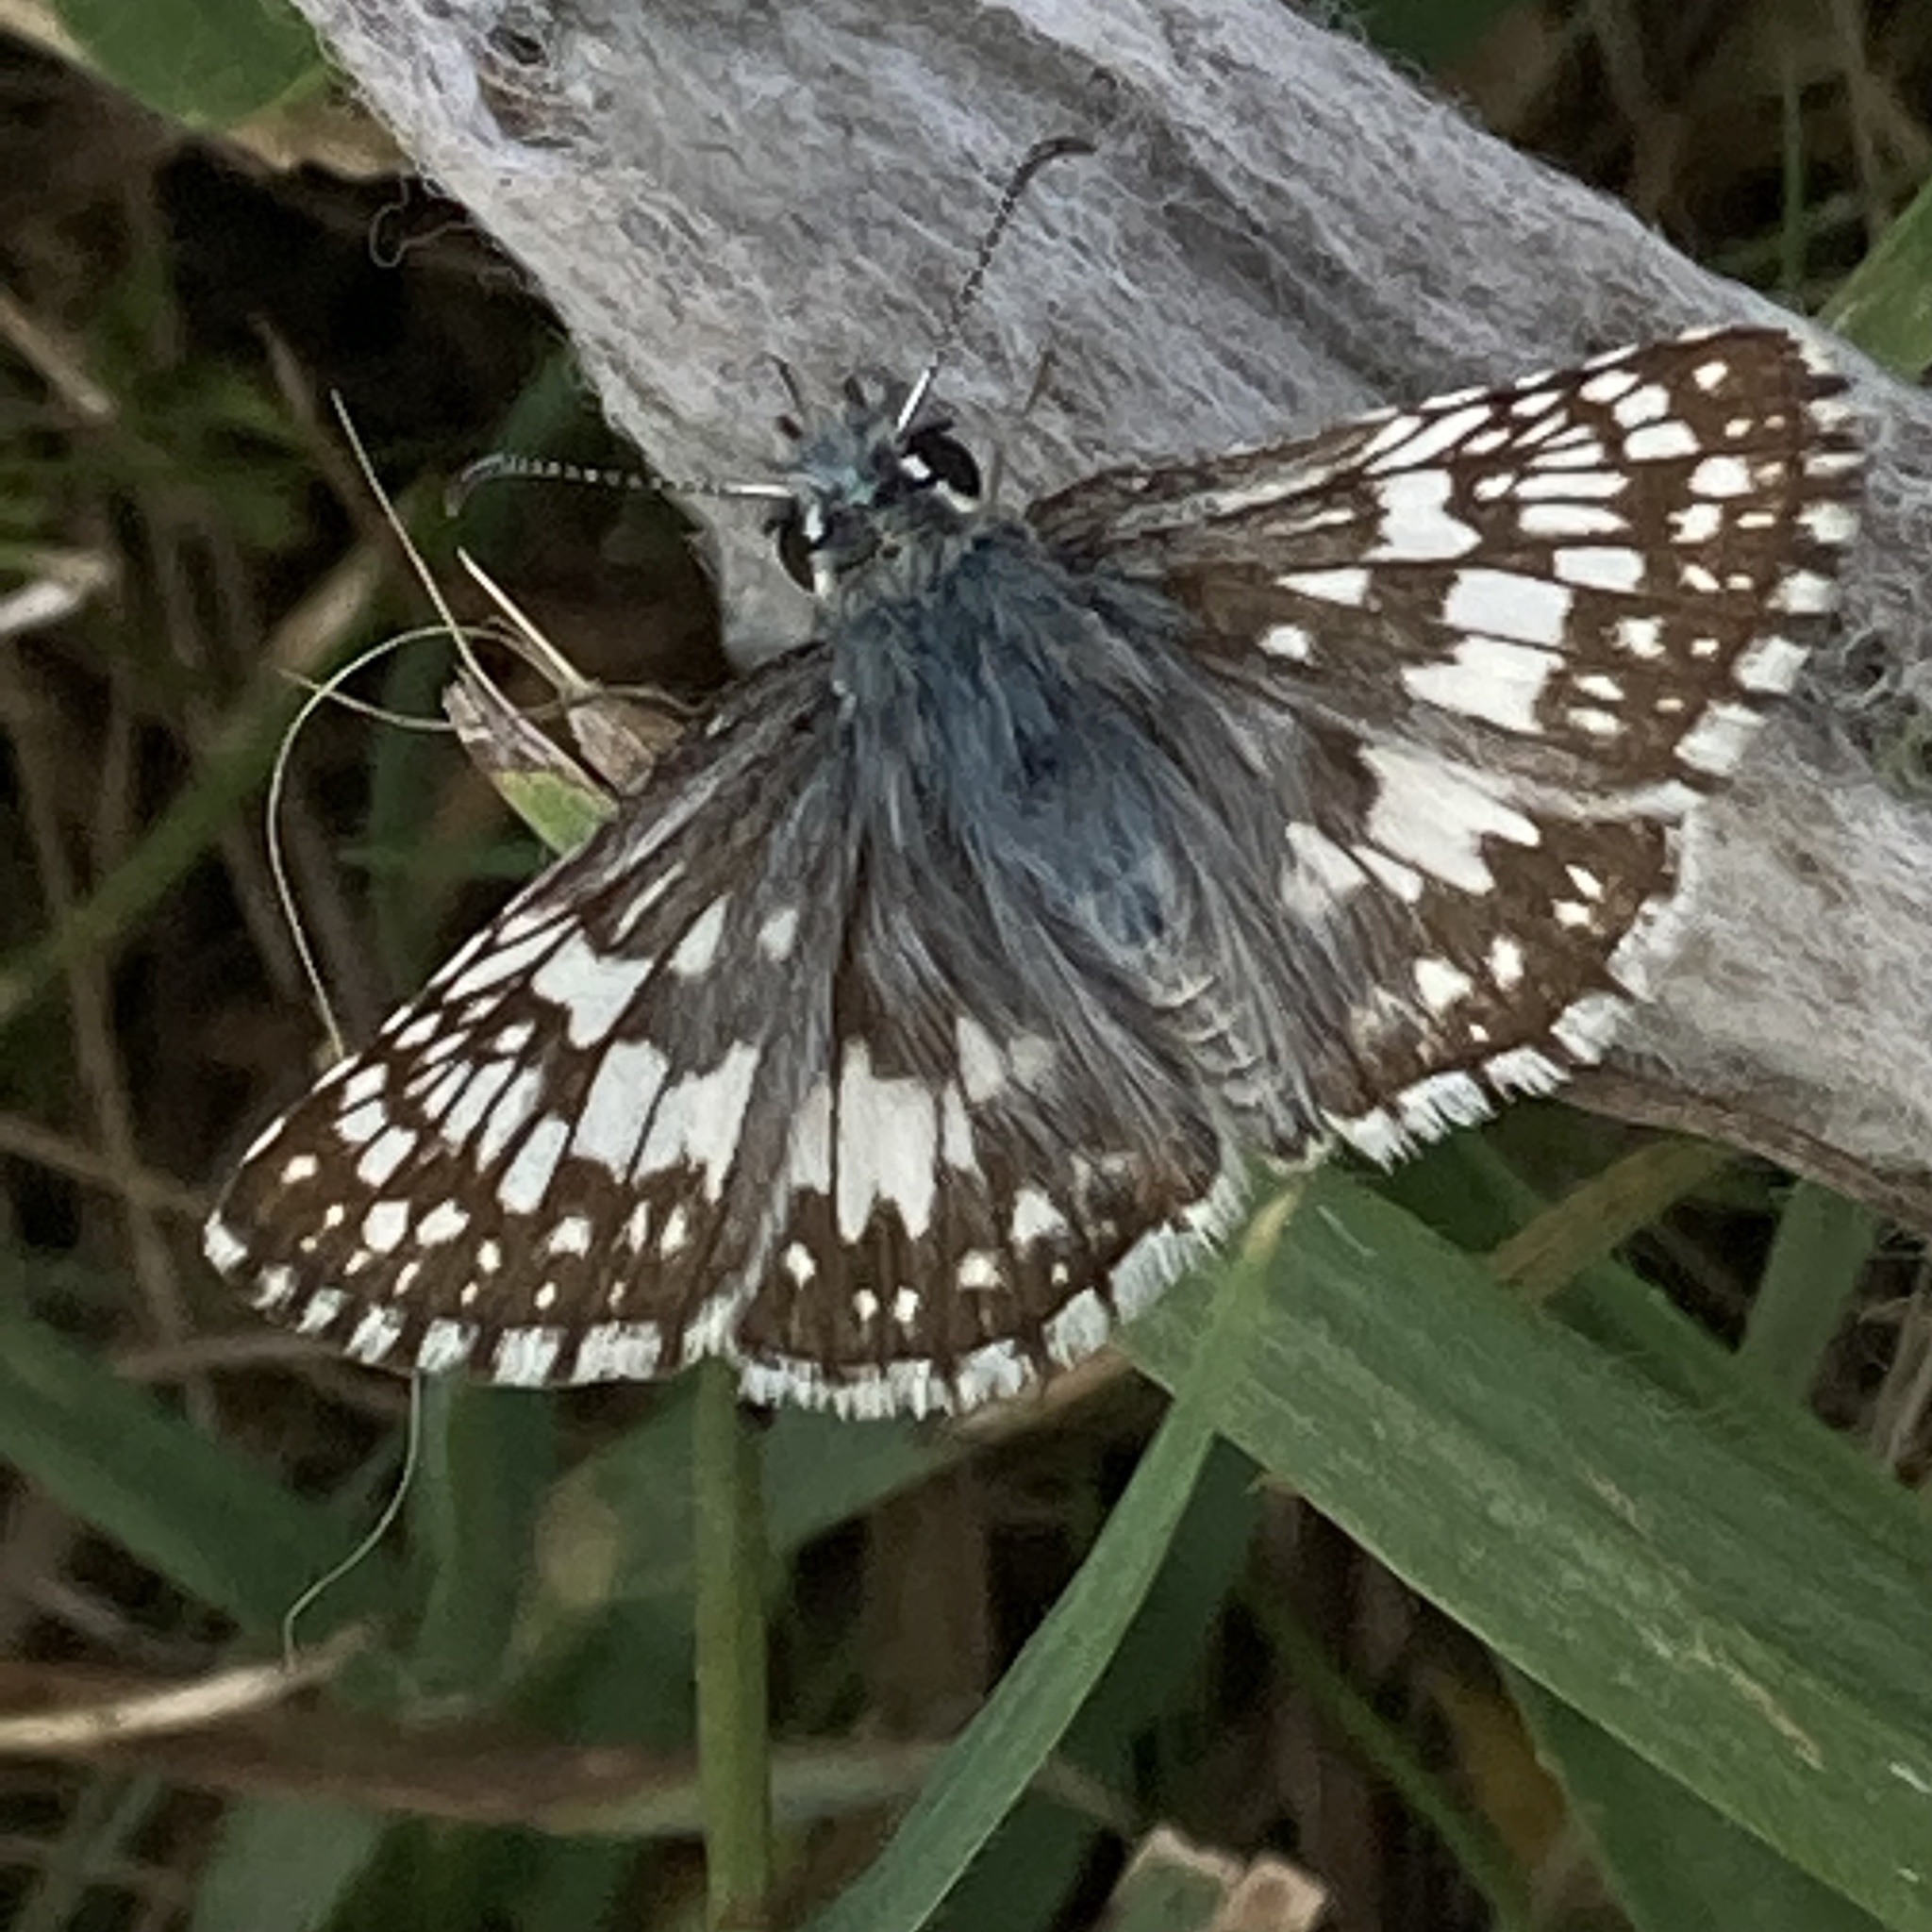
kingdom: Animalia
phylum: Arthropoda
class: Insecta
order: Lepidoptera
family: Hesperiidae
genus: Burnsius
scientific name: Burnsius communis
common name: Common checkered-skipper
